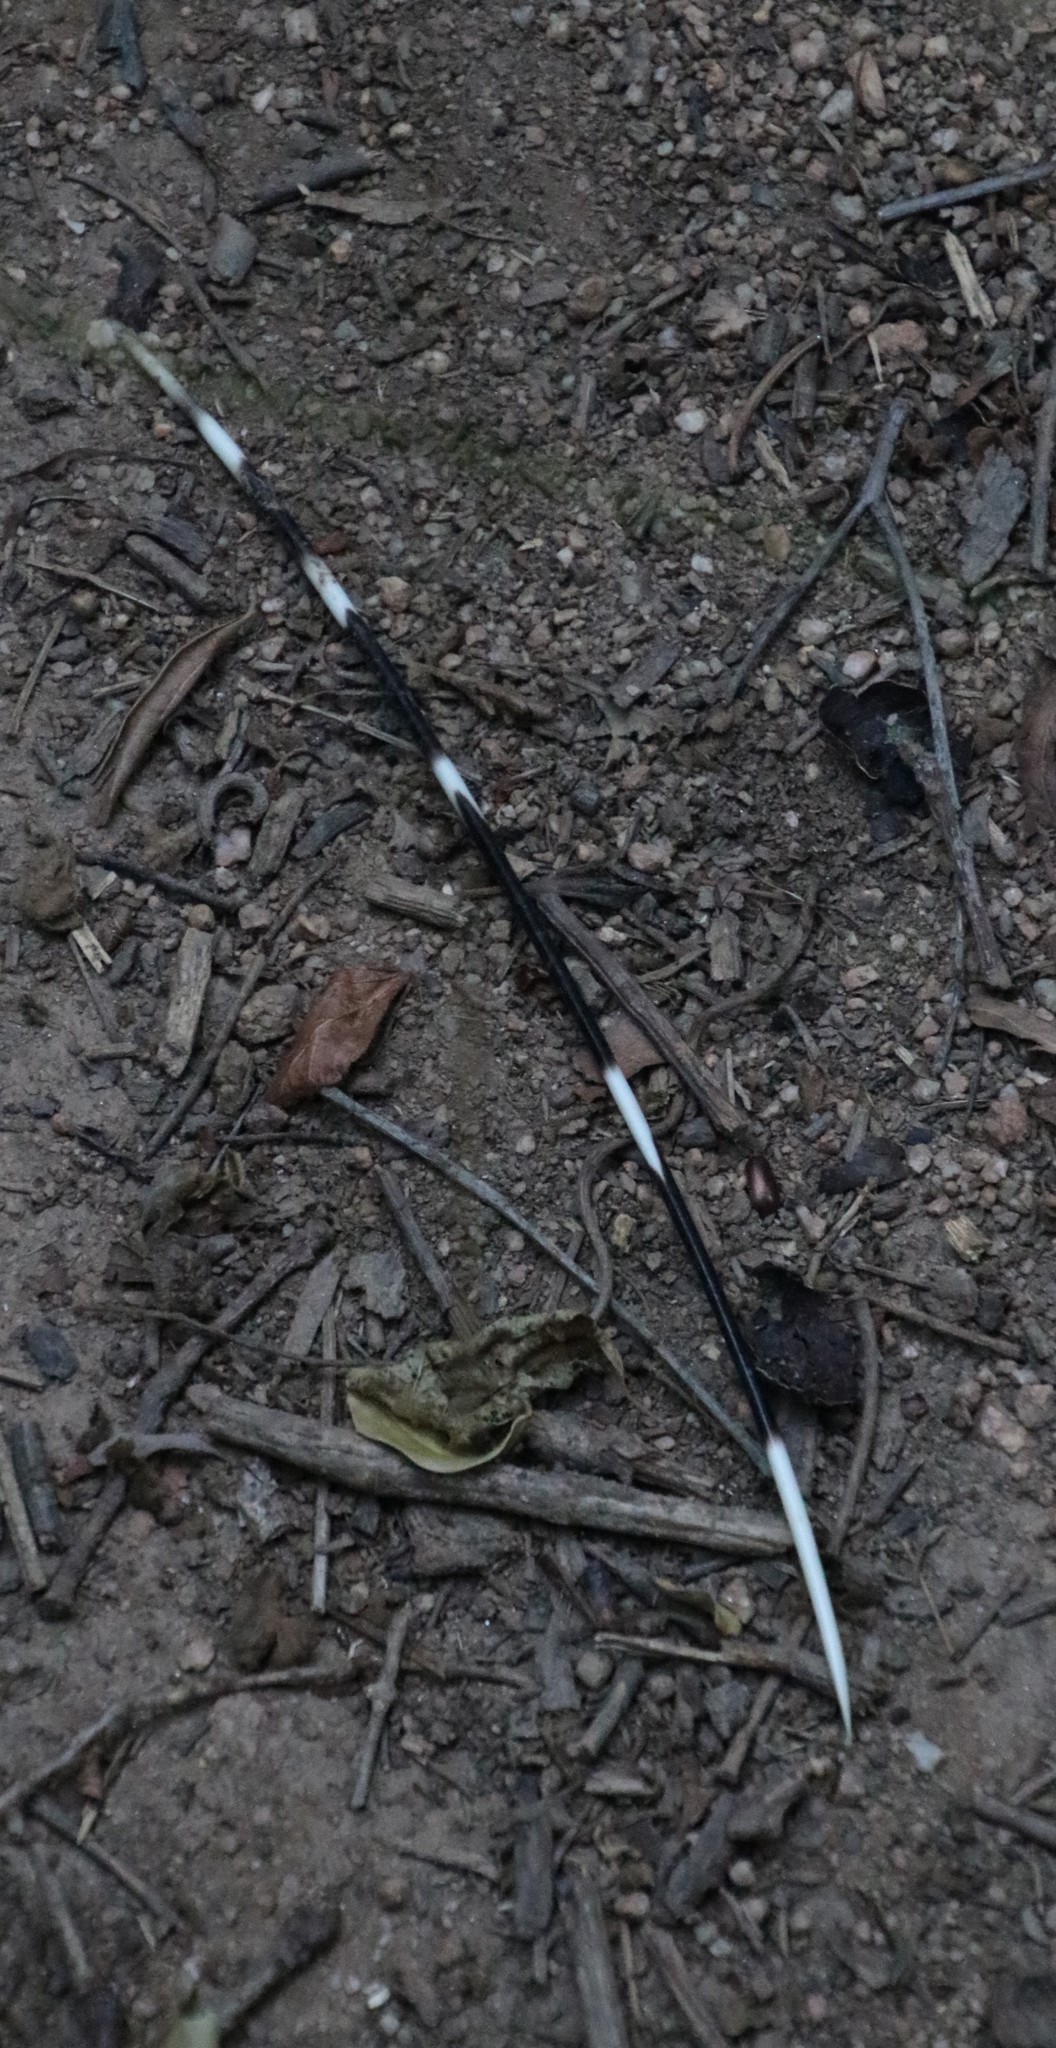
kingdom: Animalia
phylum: Chordata
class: Mammalia
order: Rodentia
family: Hystricidae
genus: Hystrix
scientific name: Hystrix africaeaustralis
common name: Cape porcupine
